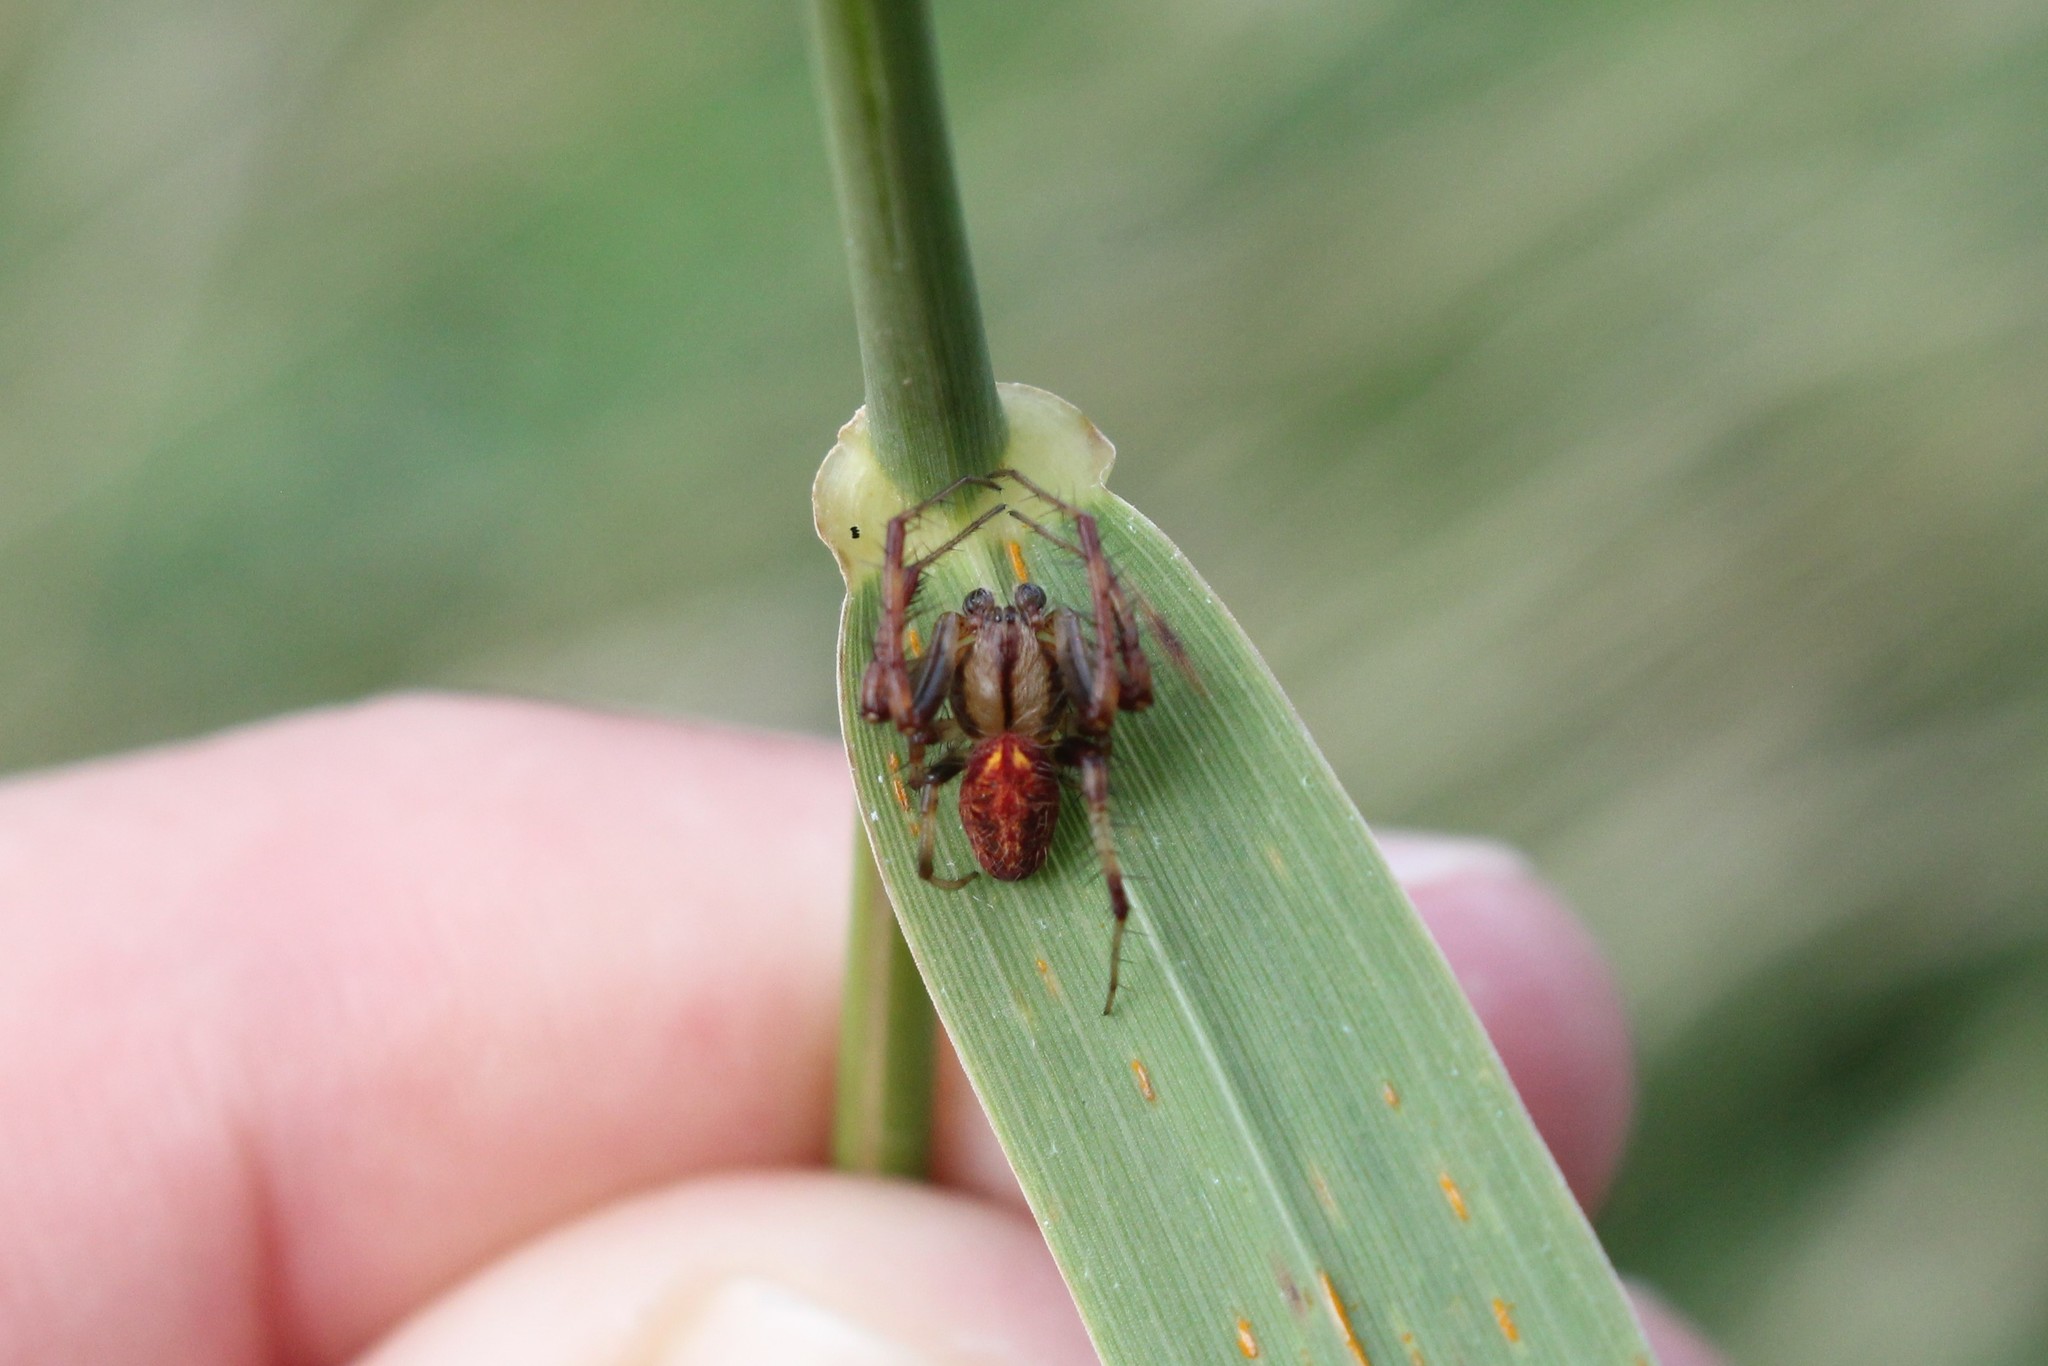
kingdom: Animalia
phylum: Arthropoda
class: Arachnida
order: Araneae
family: Araneidae
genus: Neoscona
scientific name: Neoscona arabesca
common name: Orb weavers
